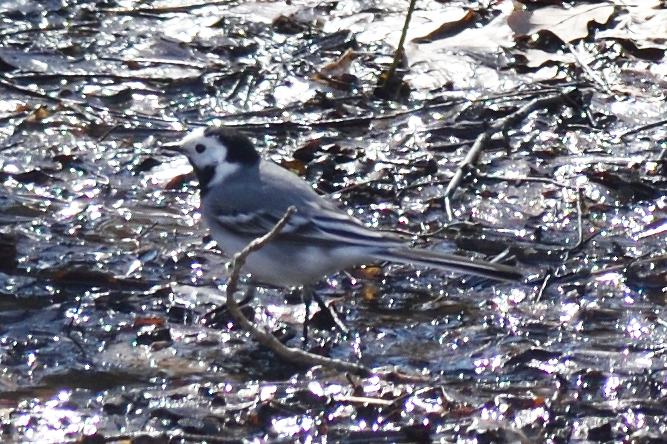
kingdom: Animalia
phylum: Chordata
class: Aves
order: Passeriformes
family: Motacillidae
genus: Motacilla
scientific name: Motacilla alba
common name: White wagtail
